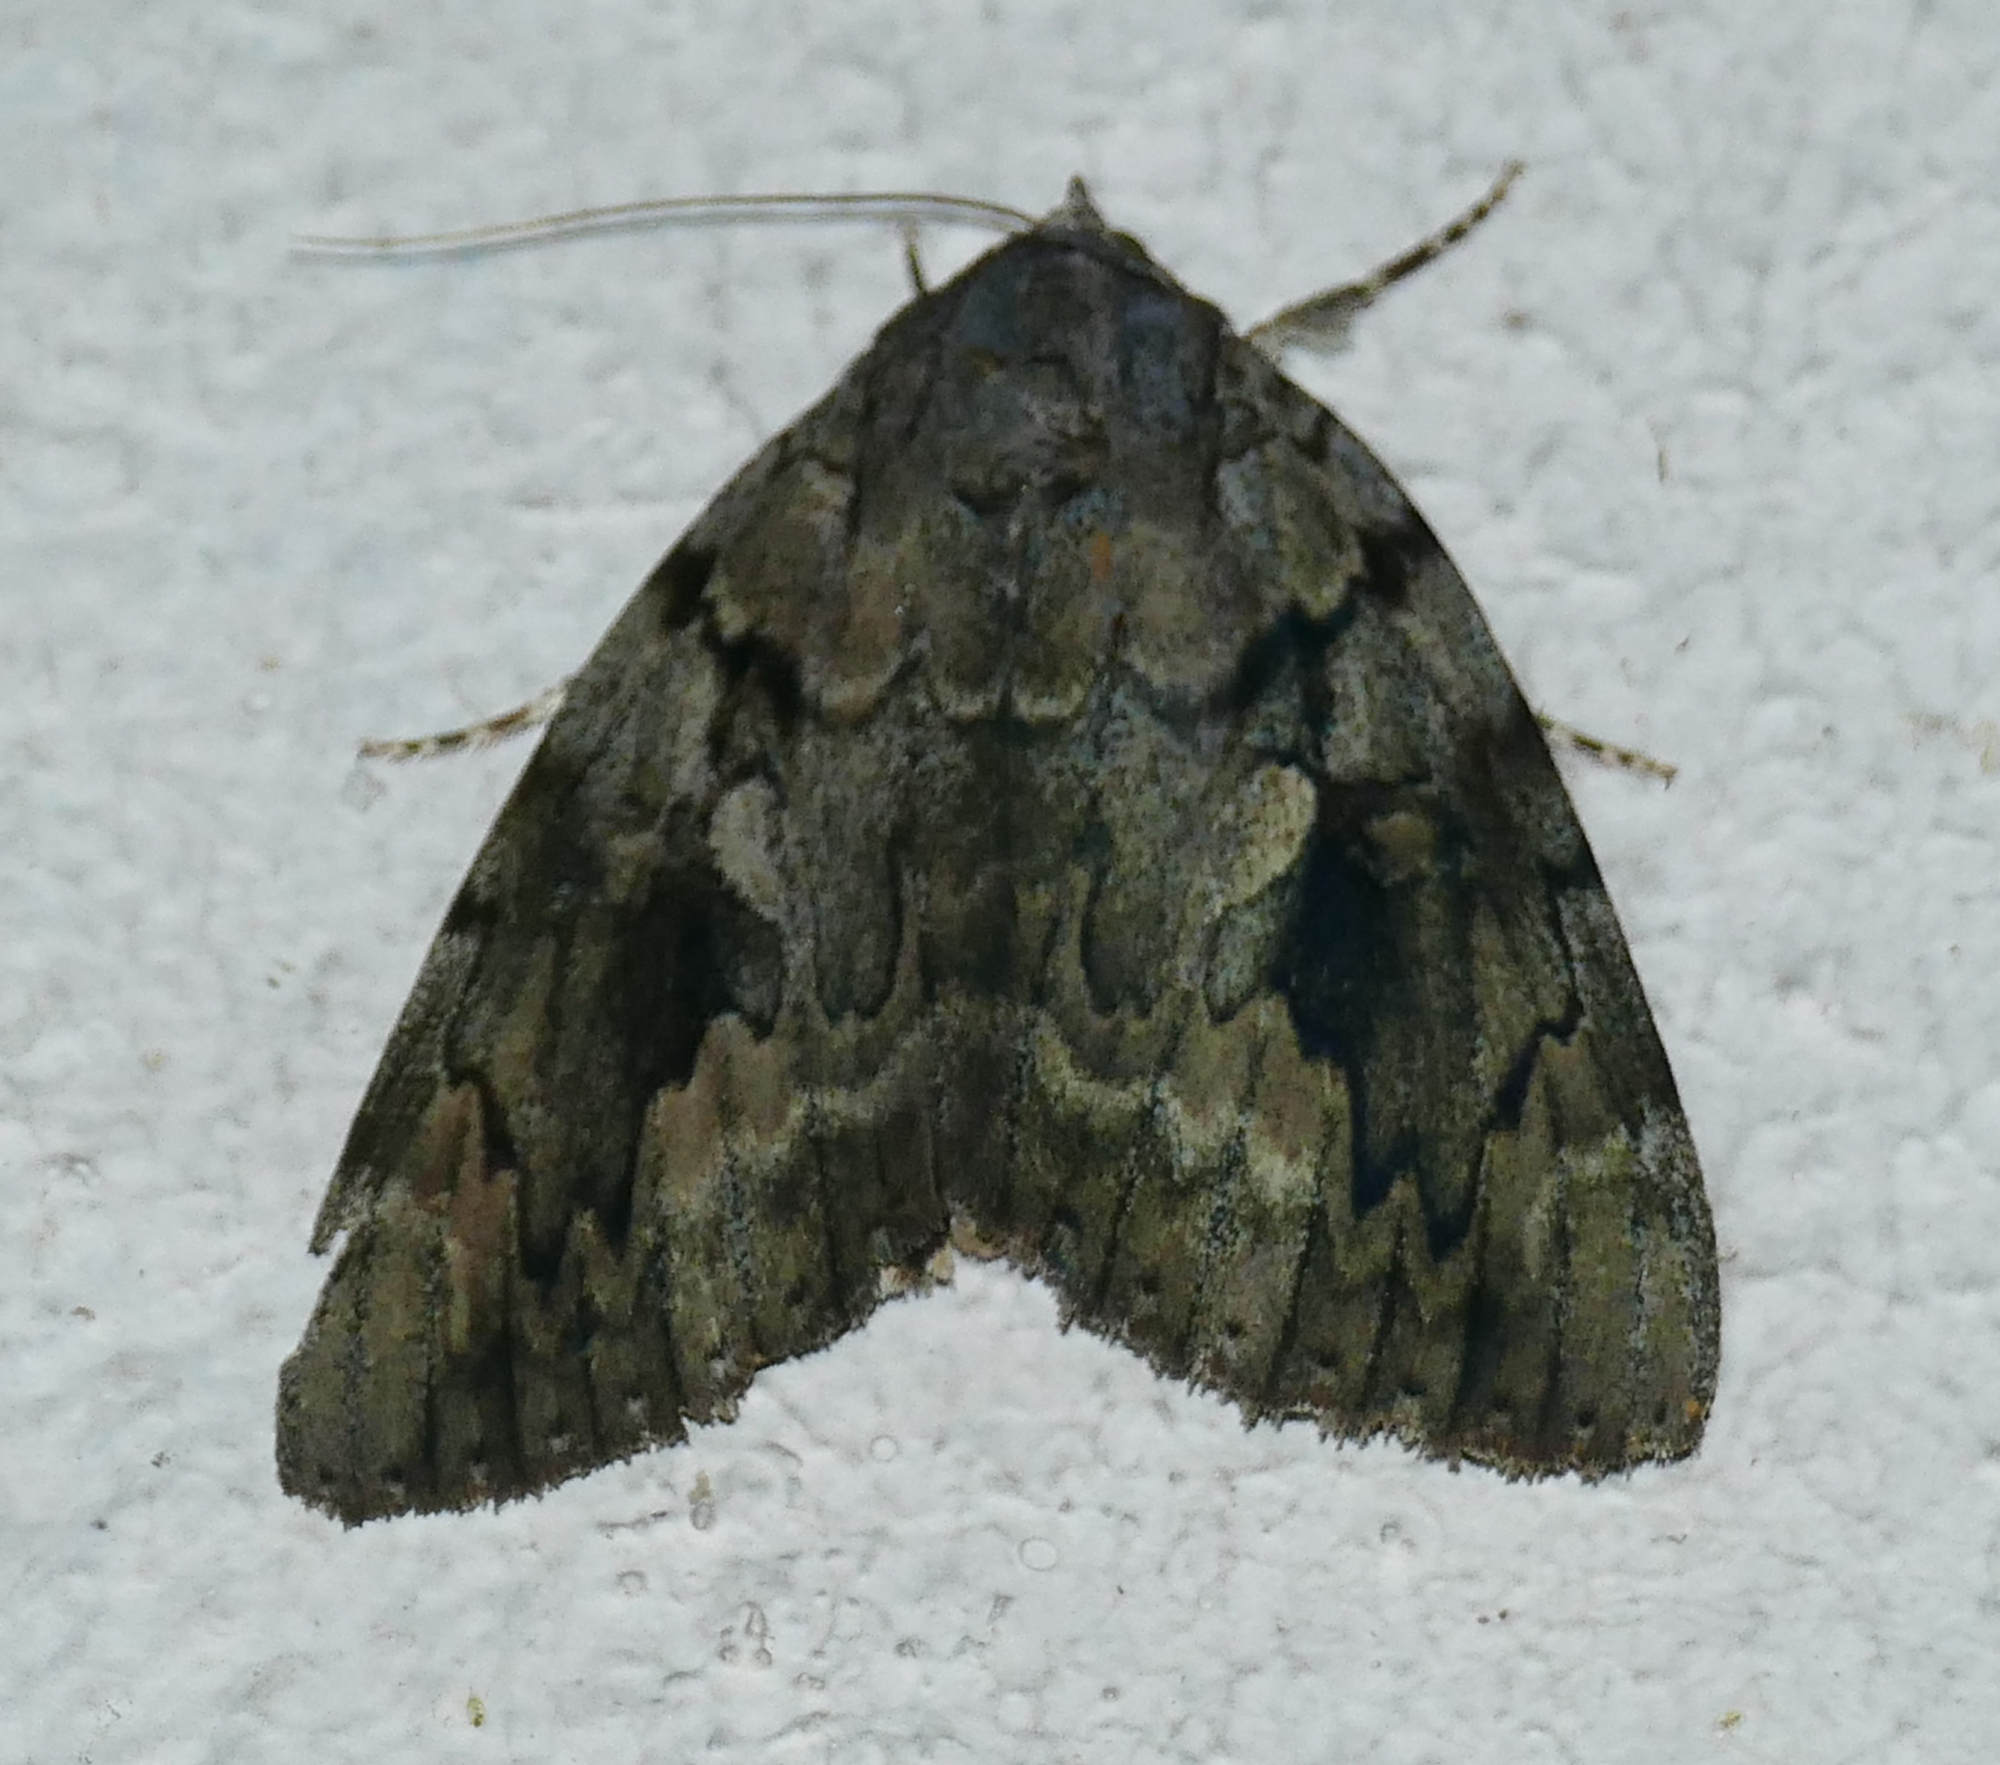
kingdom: Animalia
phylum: Arthropoda
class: Insecta
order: Lepidoptera
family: Erebidae
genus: Catocala
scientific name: Catocala agrippina
